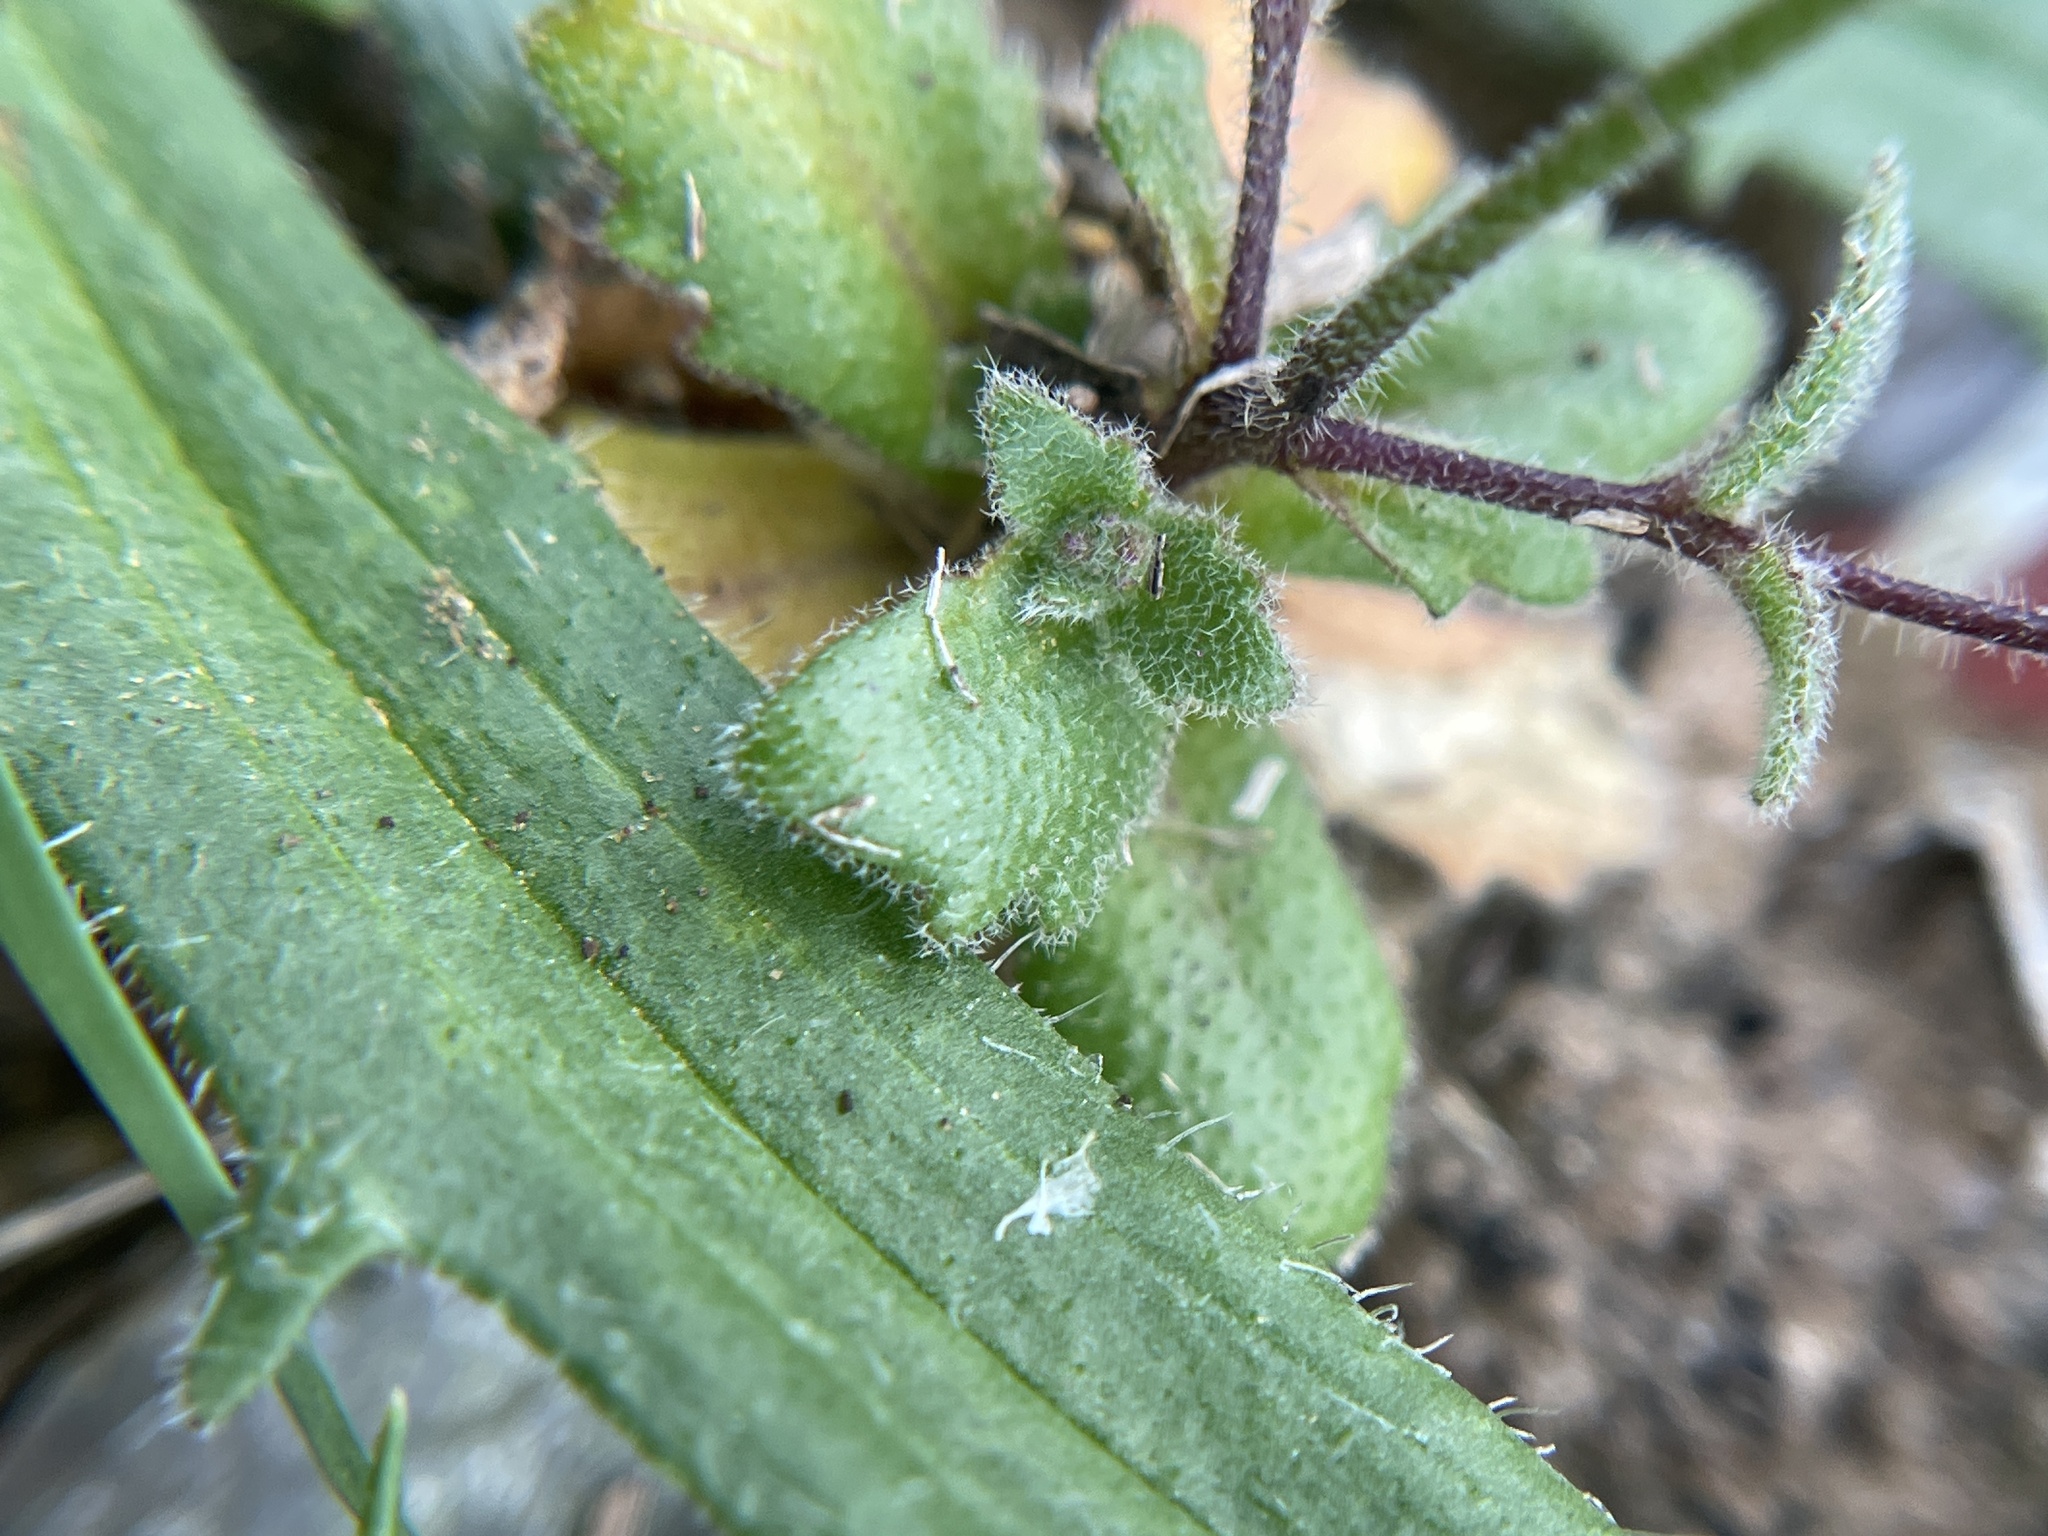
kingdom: Plantae
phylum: Tracheophyta
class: Magnoliopsida
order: Brassicales
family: Brassicaceae
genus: Tomostima
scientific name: Tomostima cuneifolia
